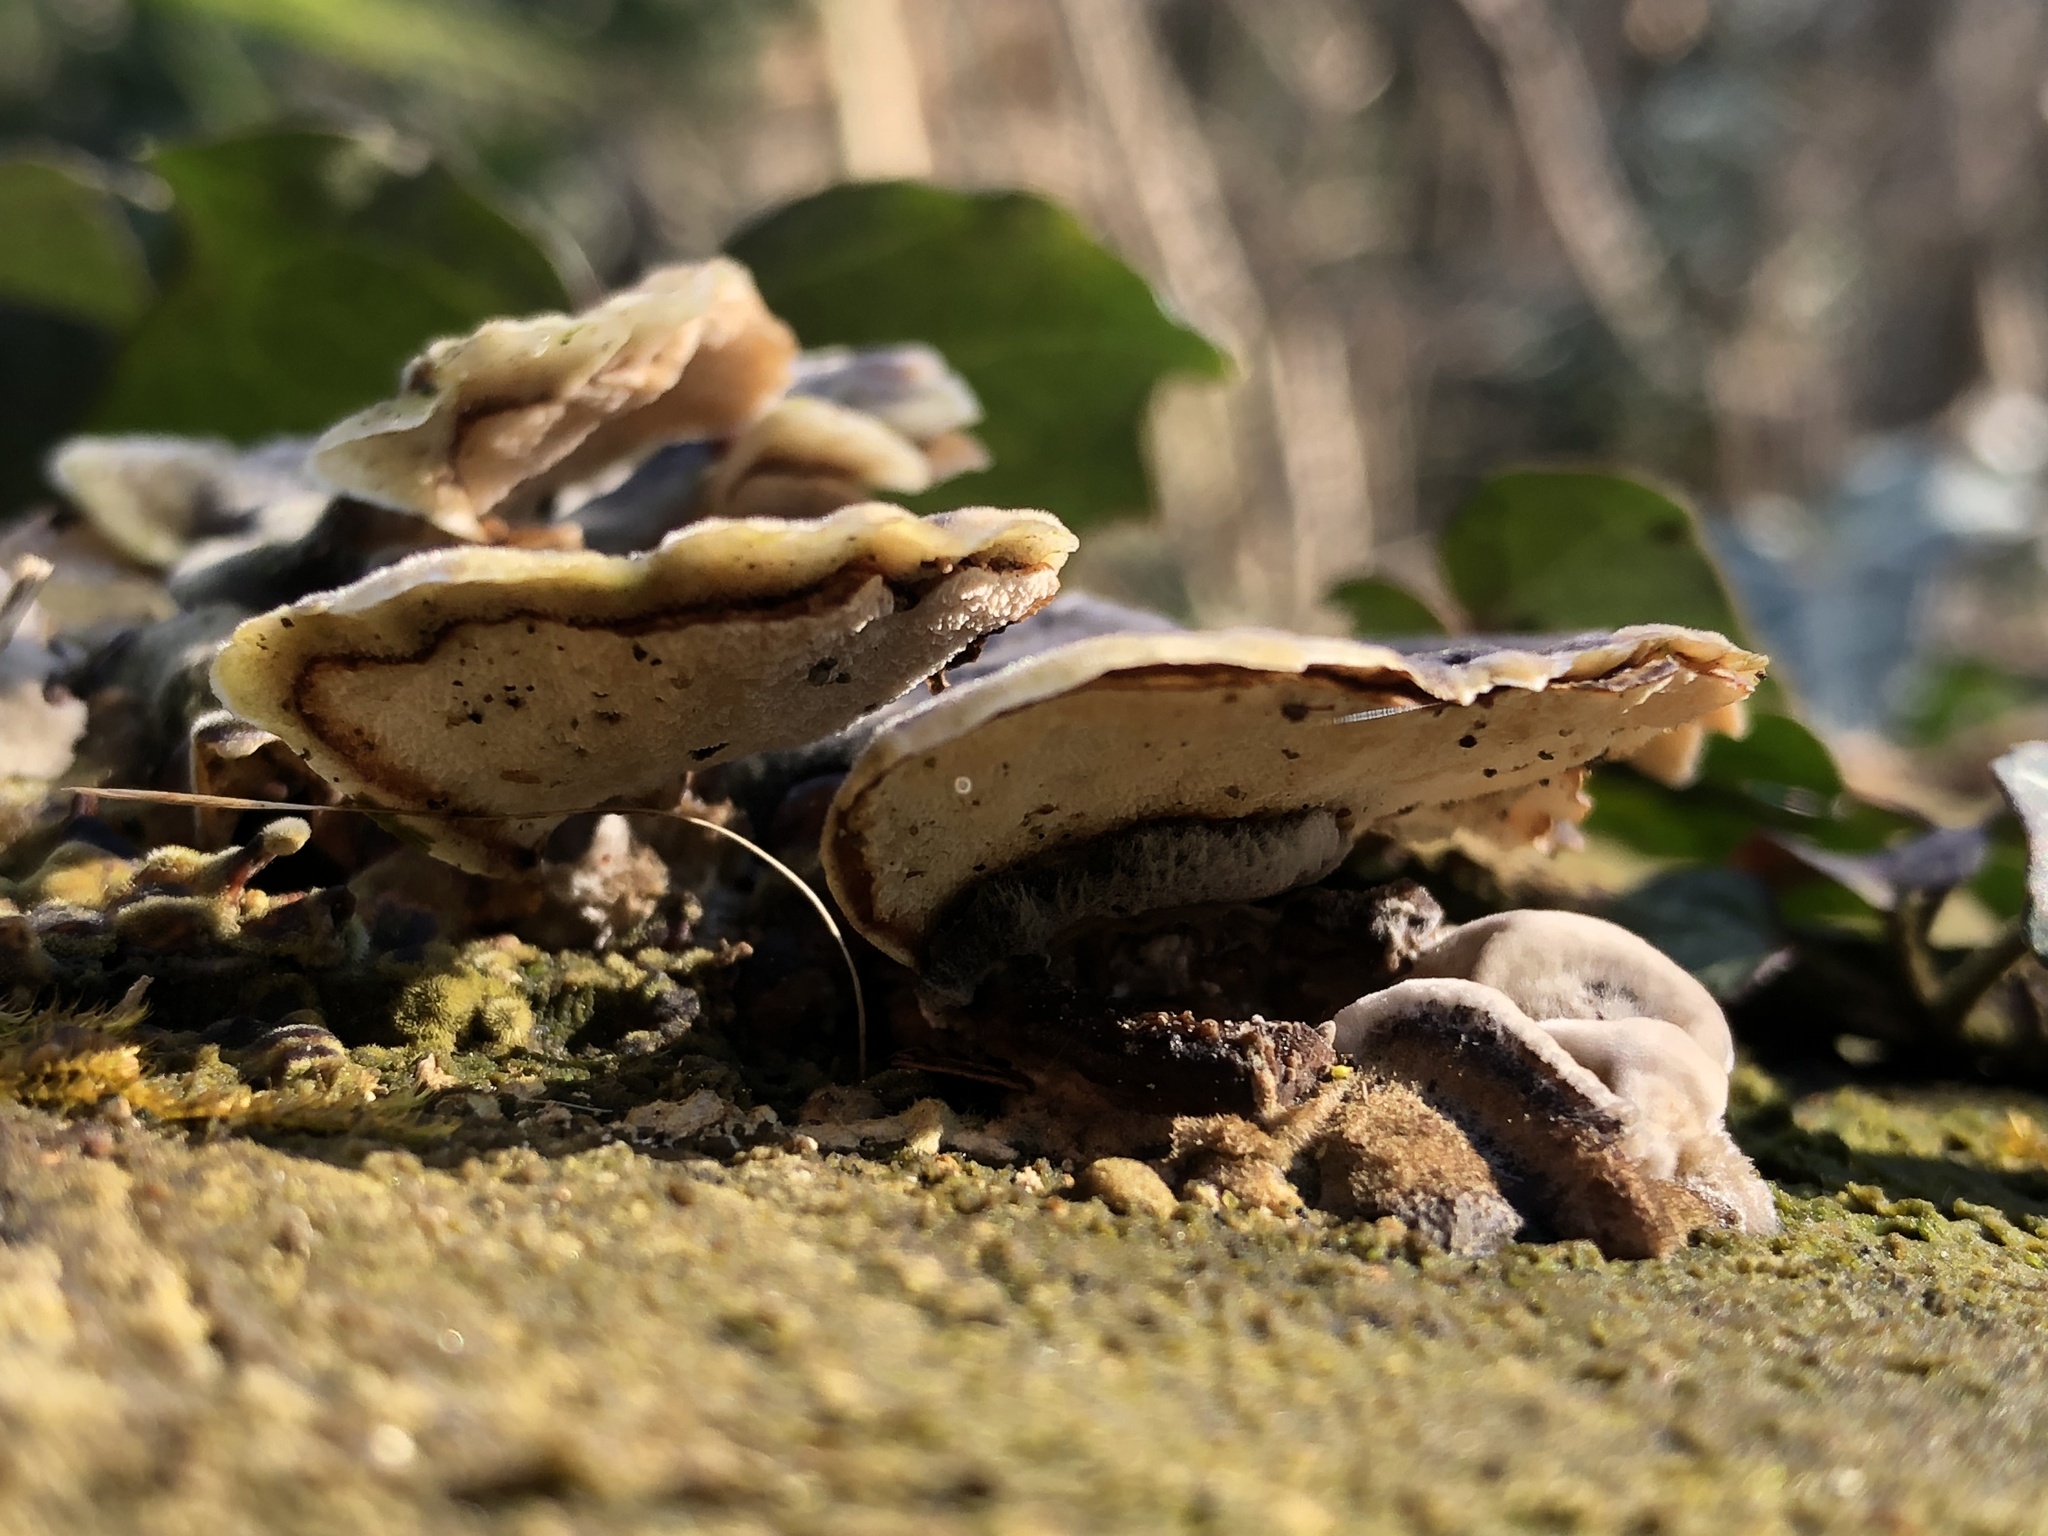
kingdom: Fungi
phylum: Basidiomycota
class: Agaricomycetes
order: Polyporales
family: Polyporaceae
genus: Trametes
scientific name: Trametes versicolor
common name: Turkeytail
